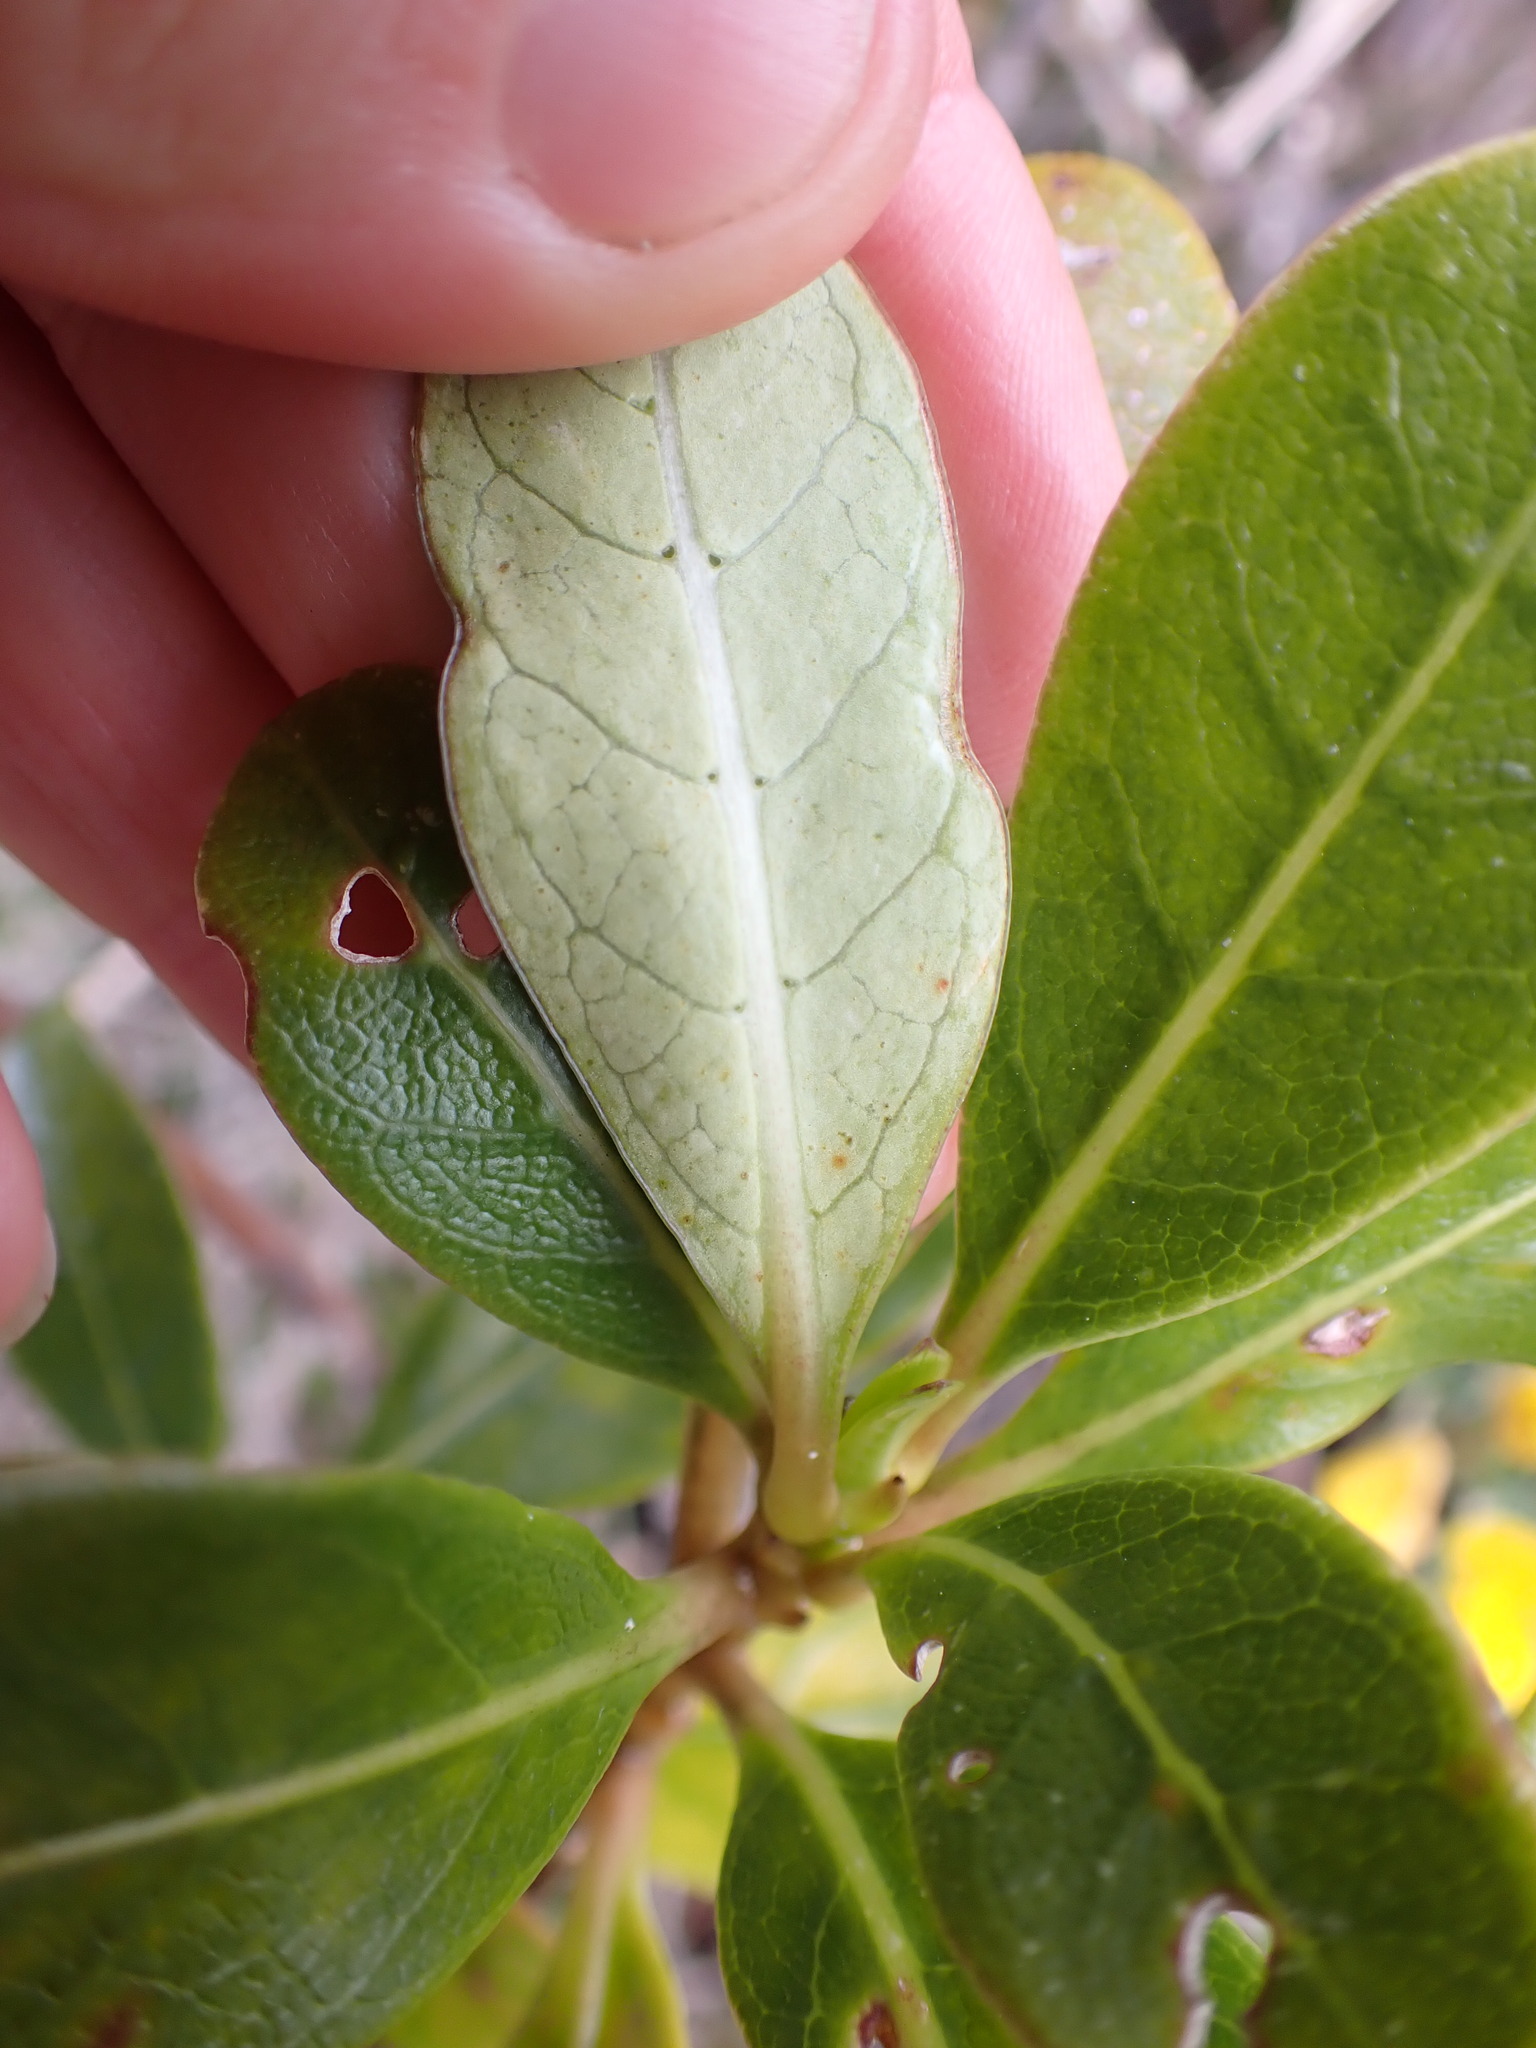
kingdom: Plantae
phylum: Tracheophyta
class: Magnoliopsida
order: Gentianales
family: Rubiaceae
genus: Coprosma
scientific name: Coprosma lucida
